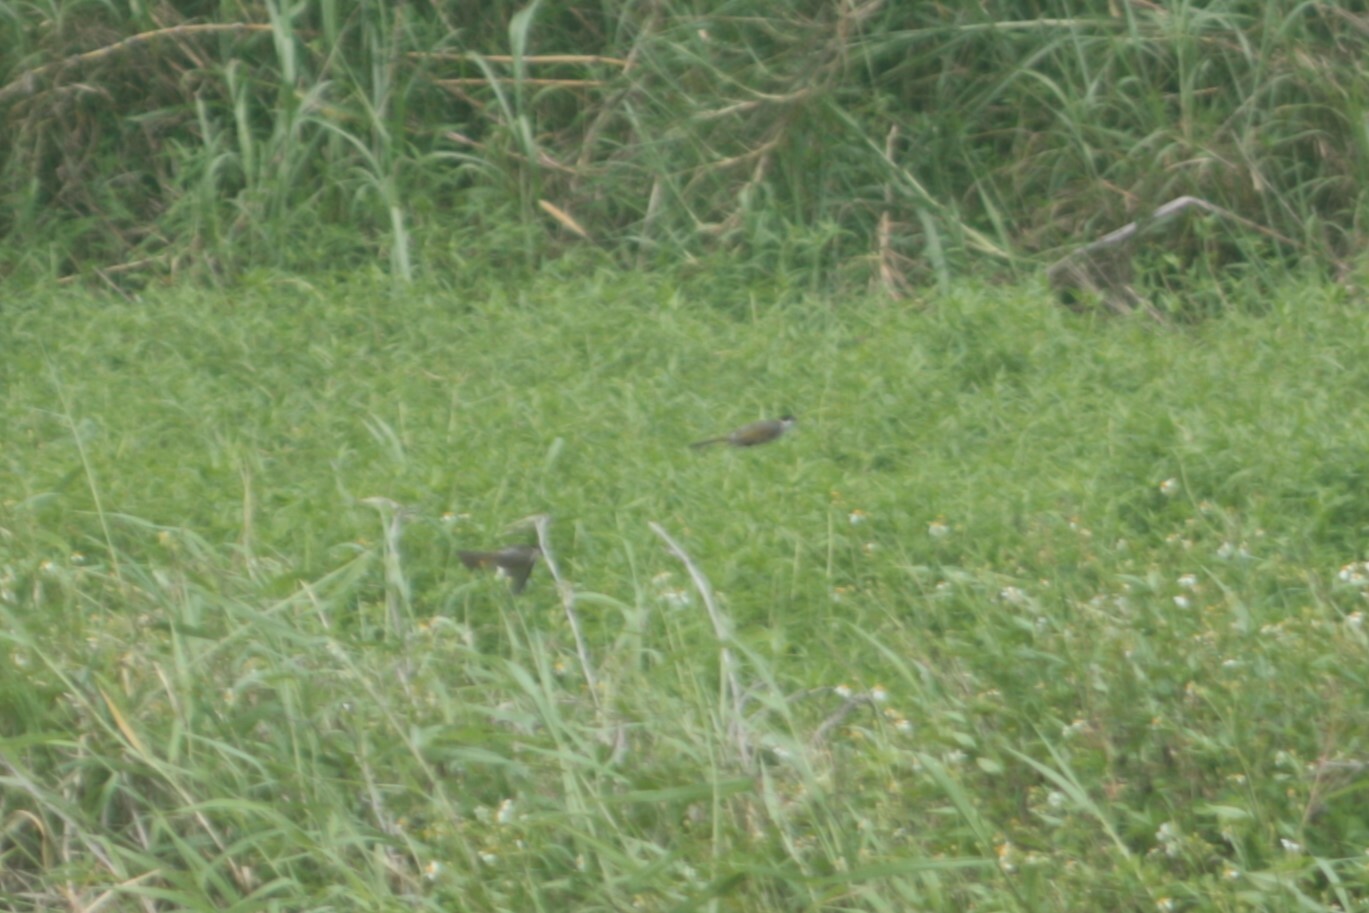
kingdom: Animalia
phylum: Chordata
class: Aves
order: Passeriformes
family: Pycnonotidae
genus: Pycnonotus
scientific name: Pycnonotus taivanus
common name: Styan's bulbul
